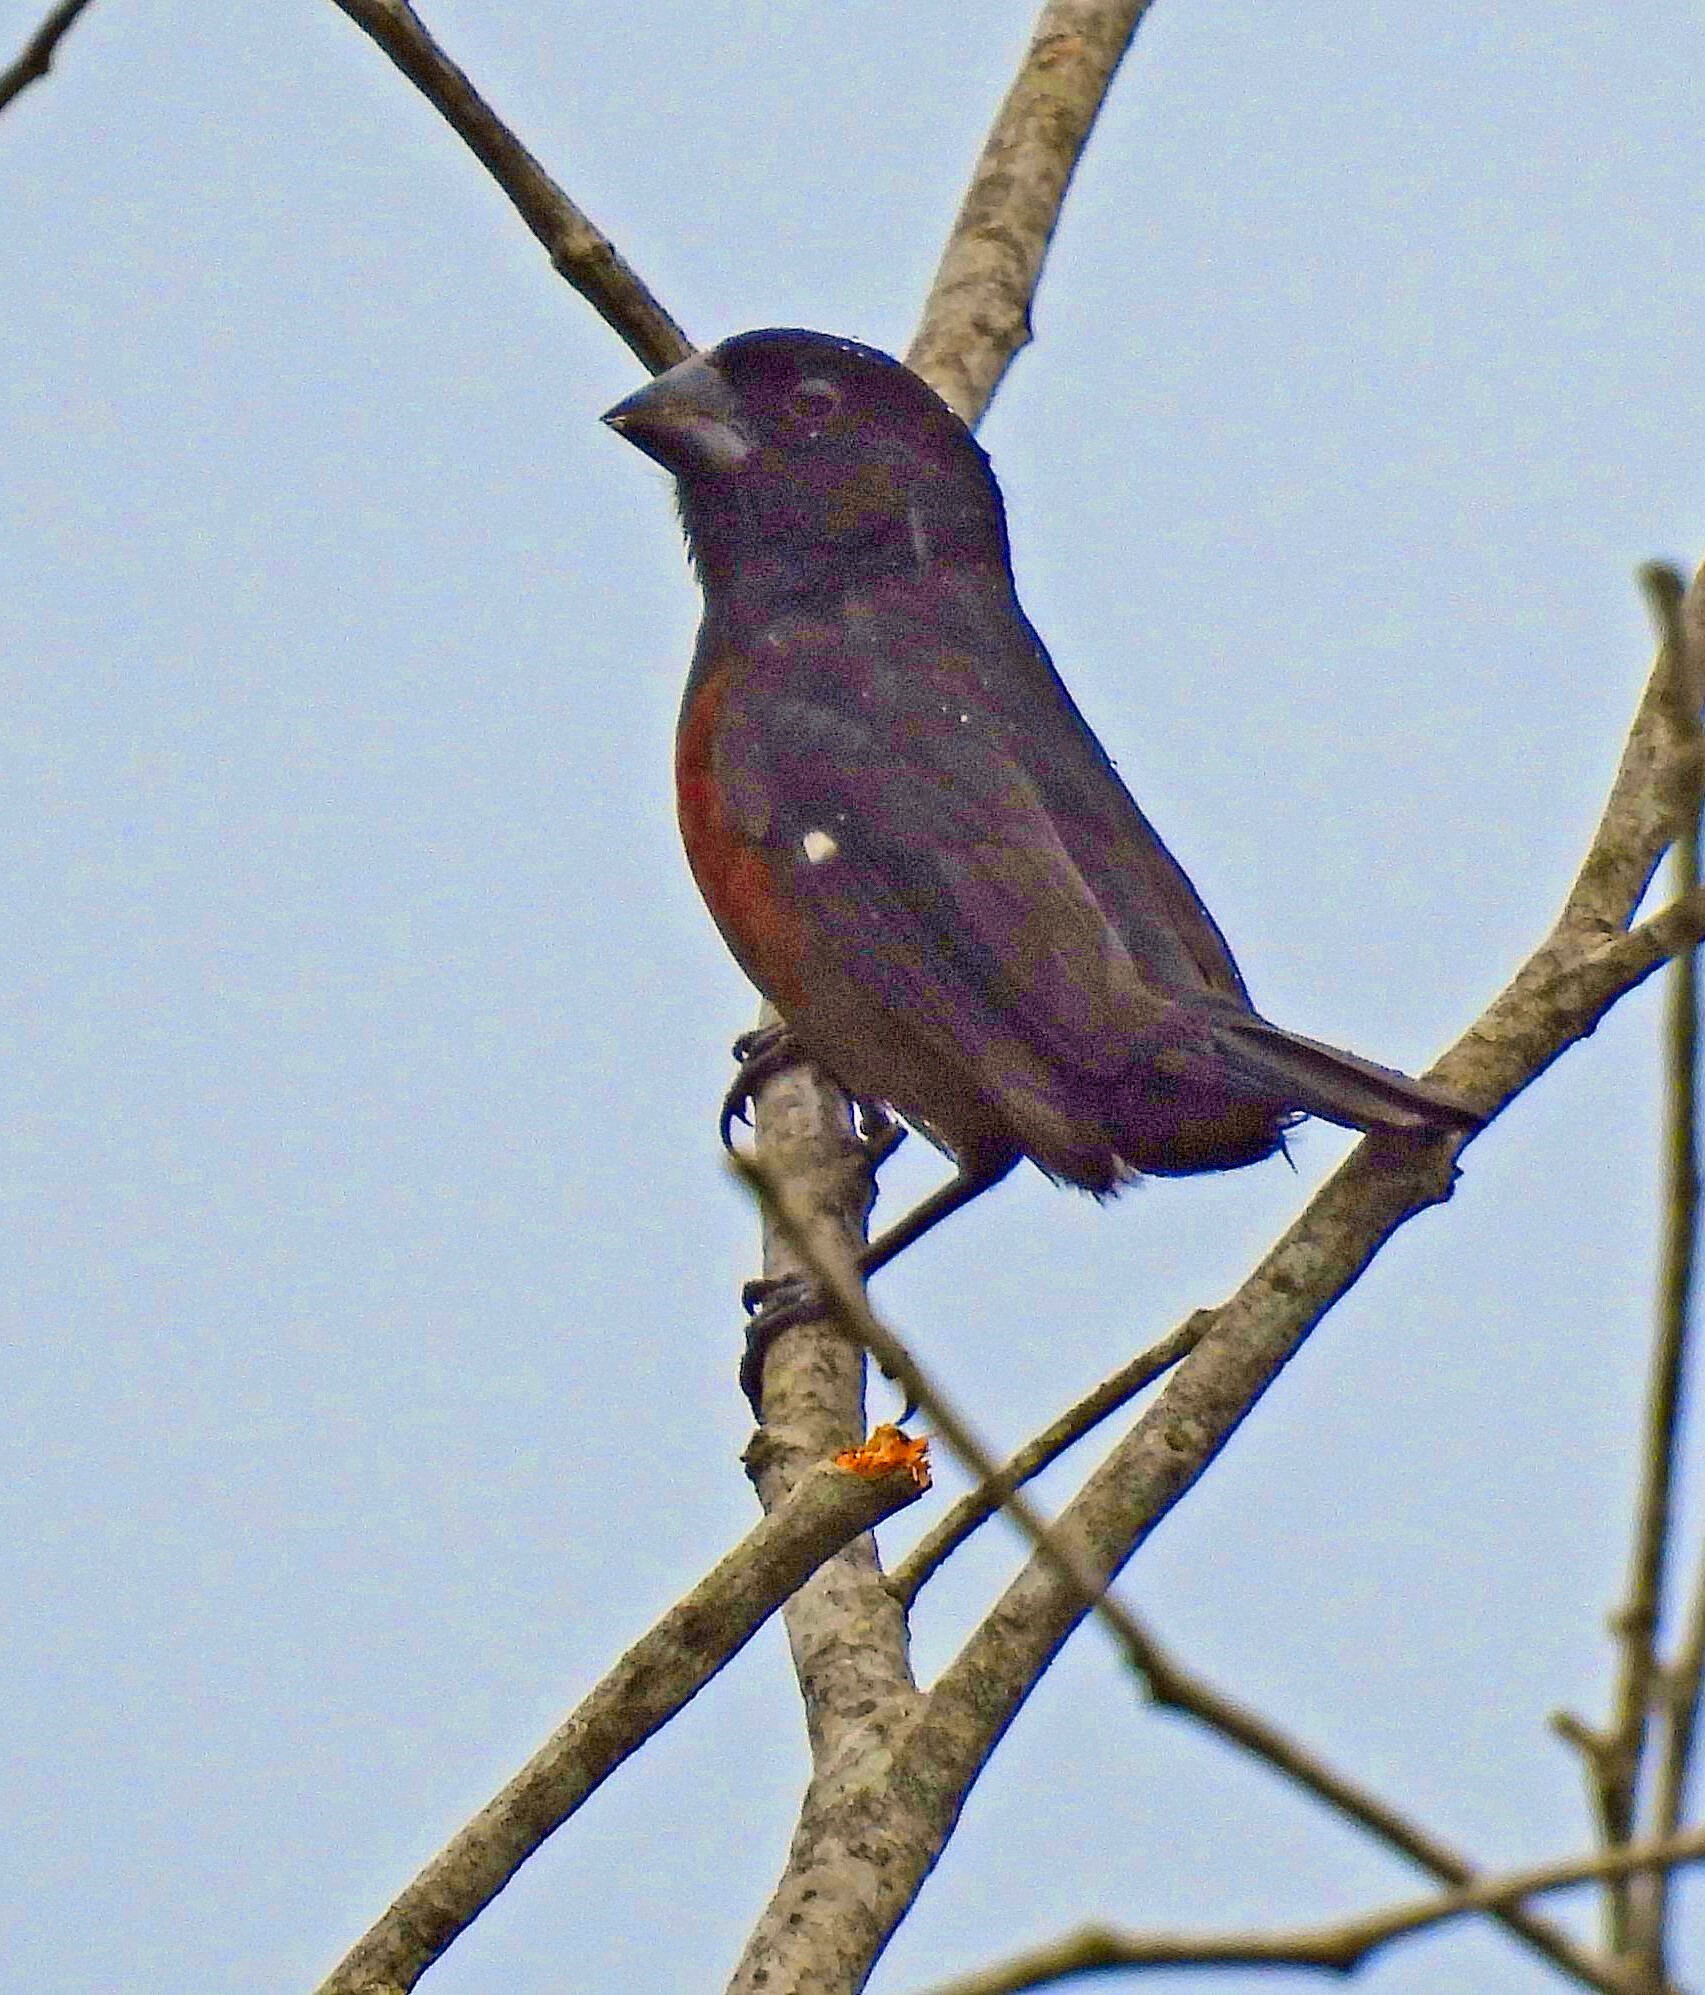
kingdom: Animalia
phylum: Chordata
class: Aves
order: Passeriformes
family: Thraupidae
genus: Sporophila
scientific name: Sporophila angolensis
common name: Chestnut-bellied seed-finch
